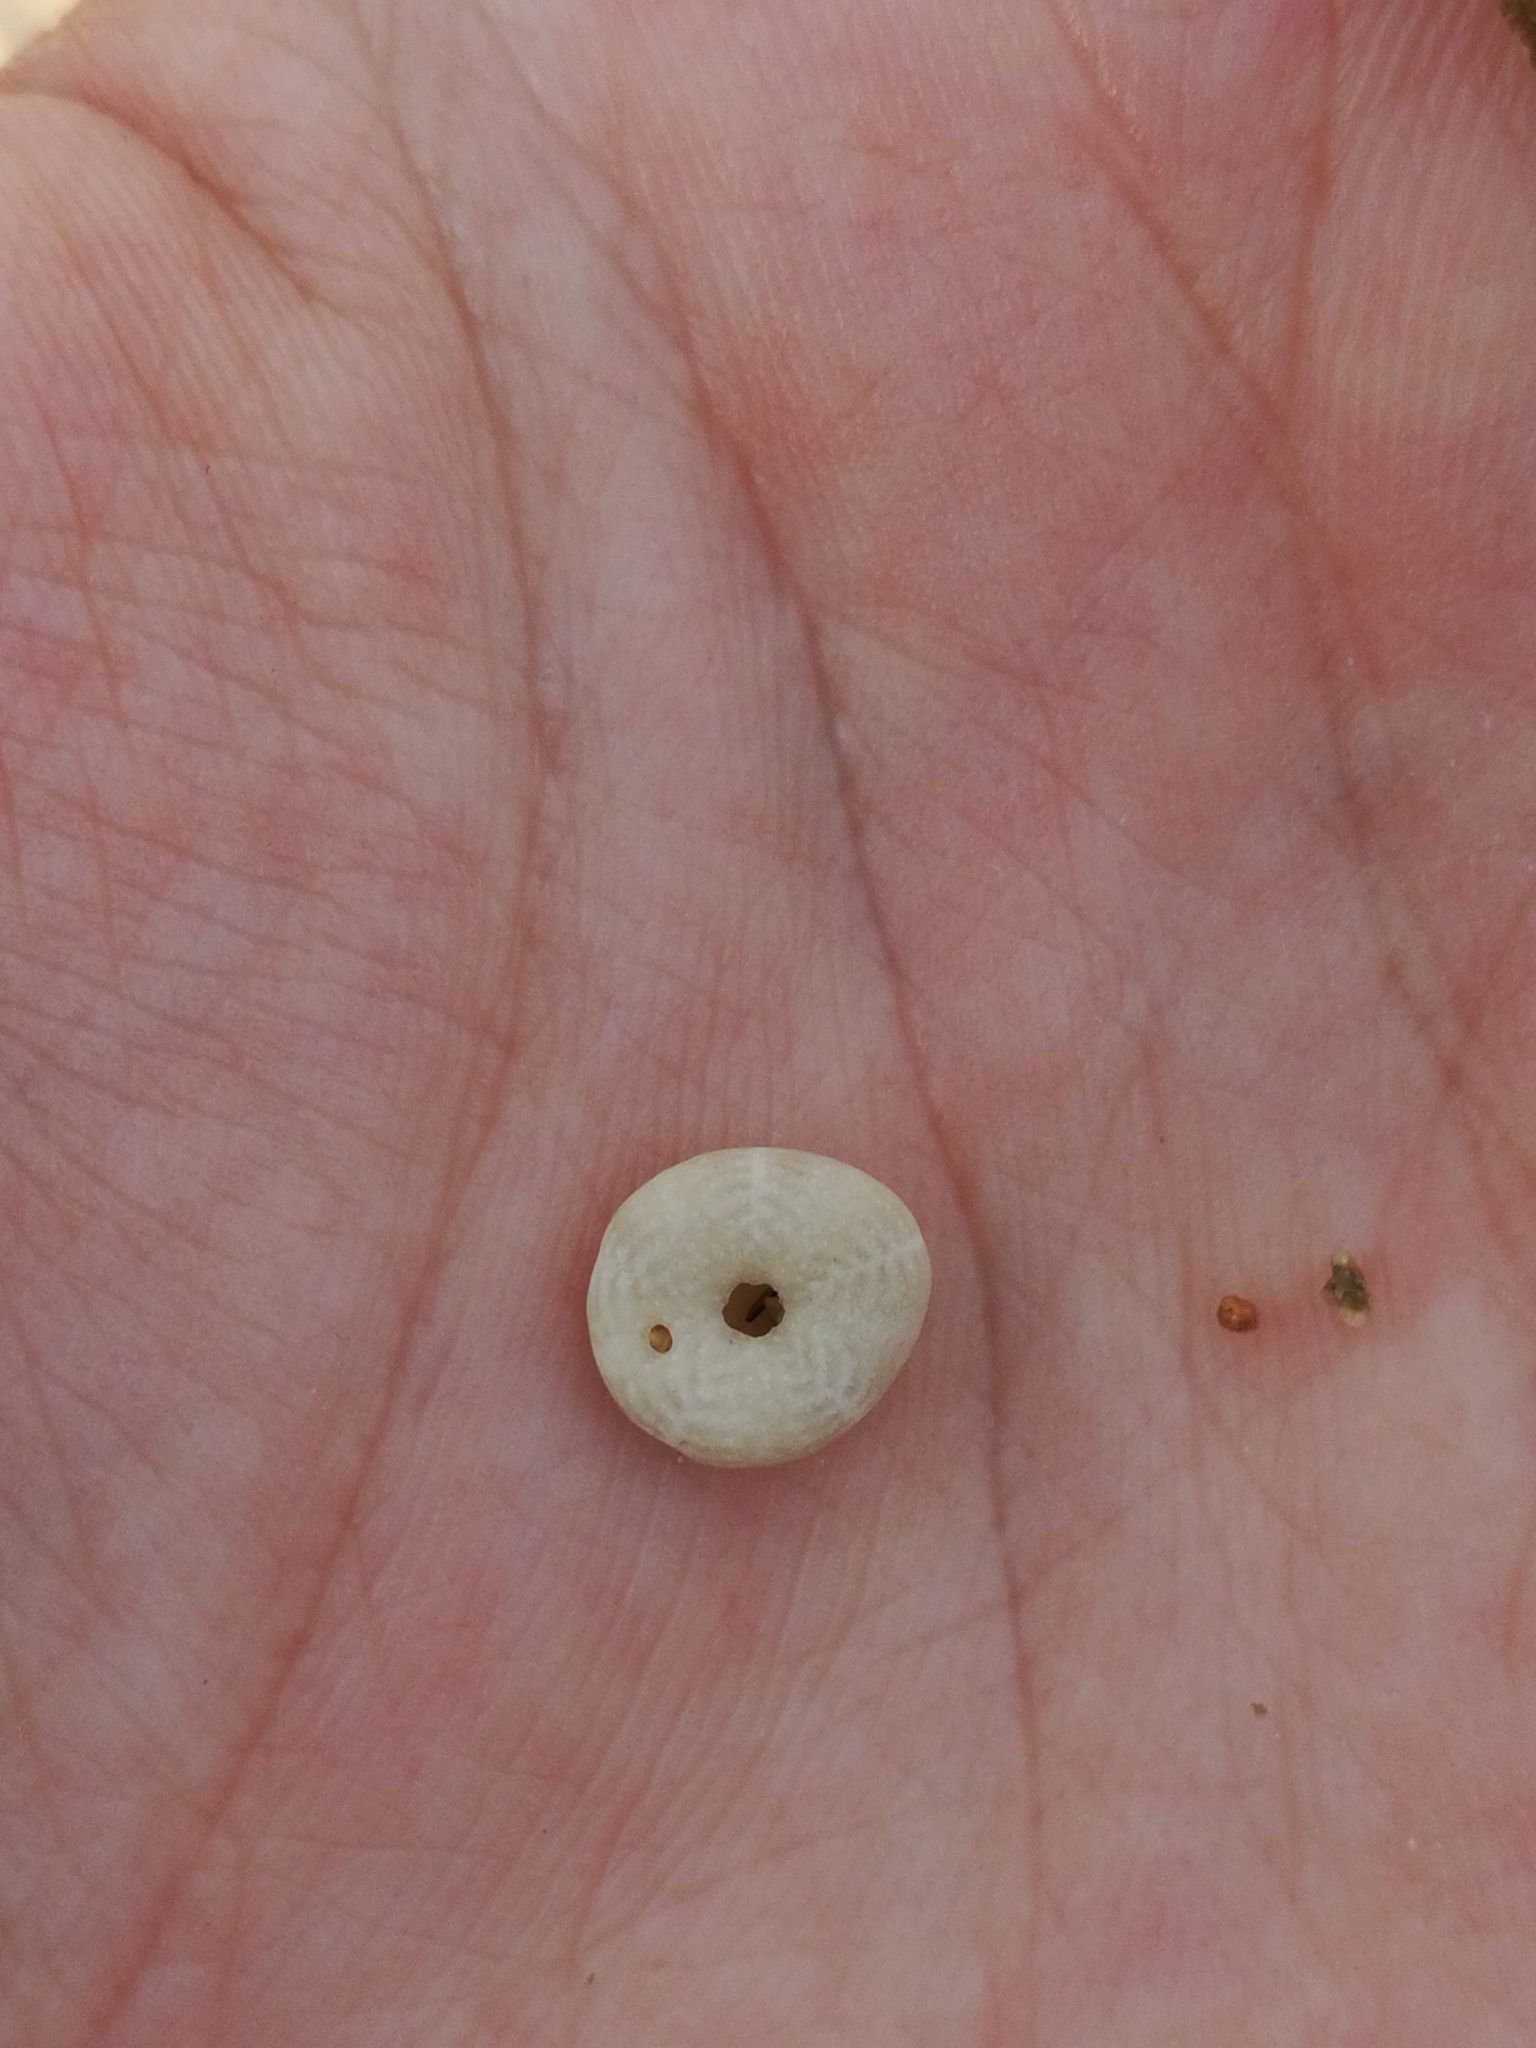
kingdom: Animalia
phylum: Echinodermata
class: Echinoidea
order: Echinolampadacea
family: Fibulariidae
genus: Echinocyamus
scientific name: Echinocyamus pusillus
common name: Broad beau of sea
